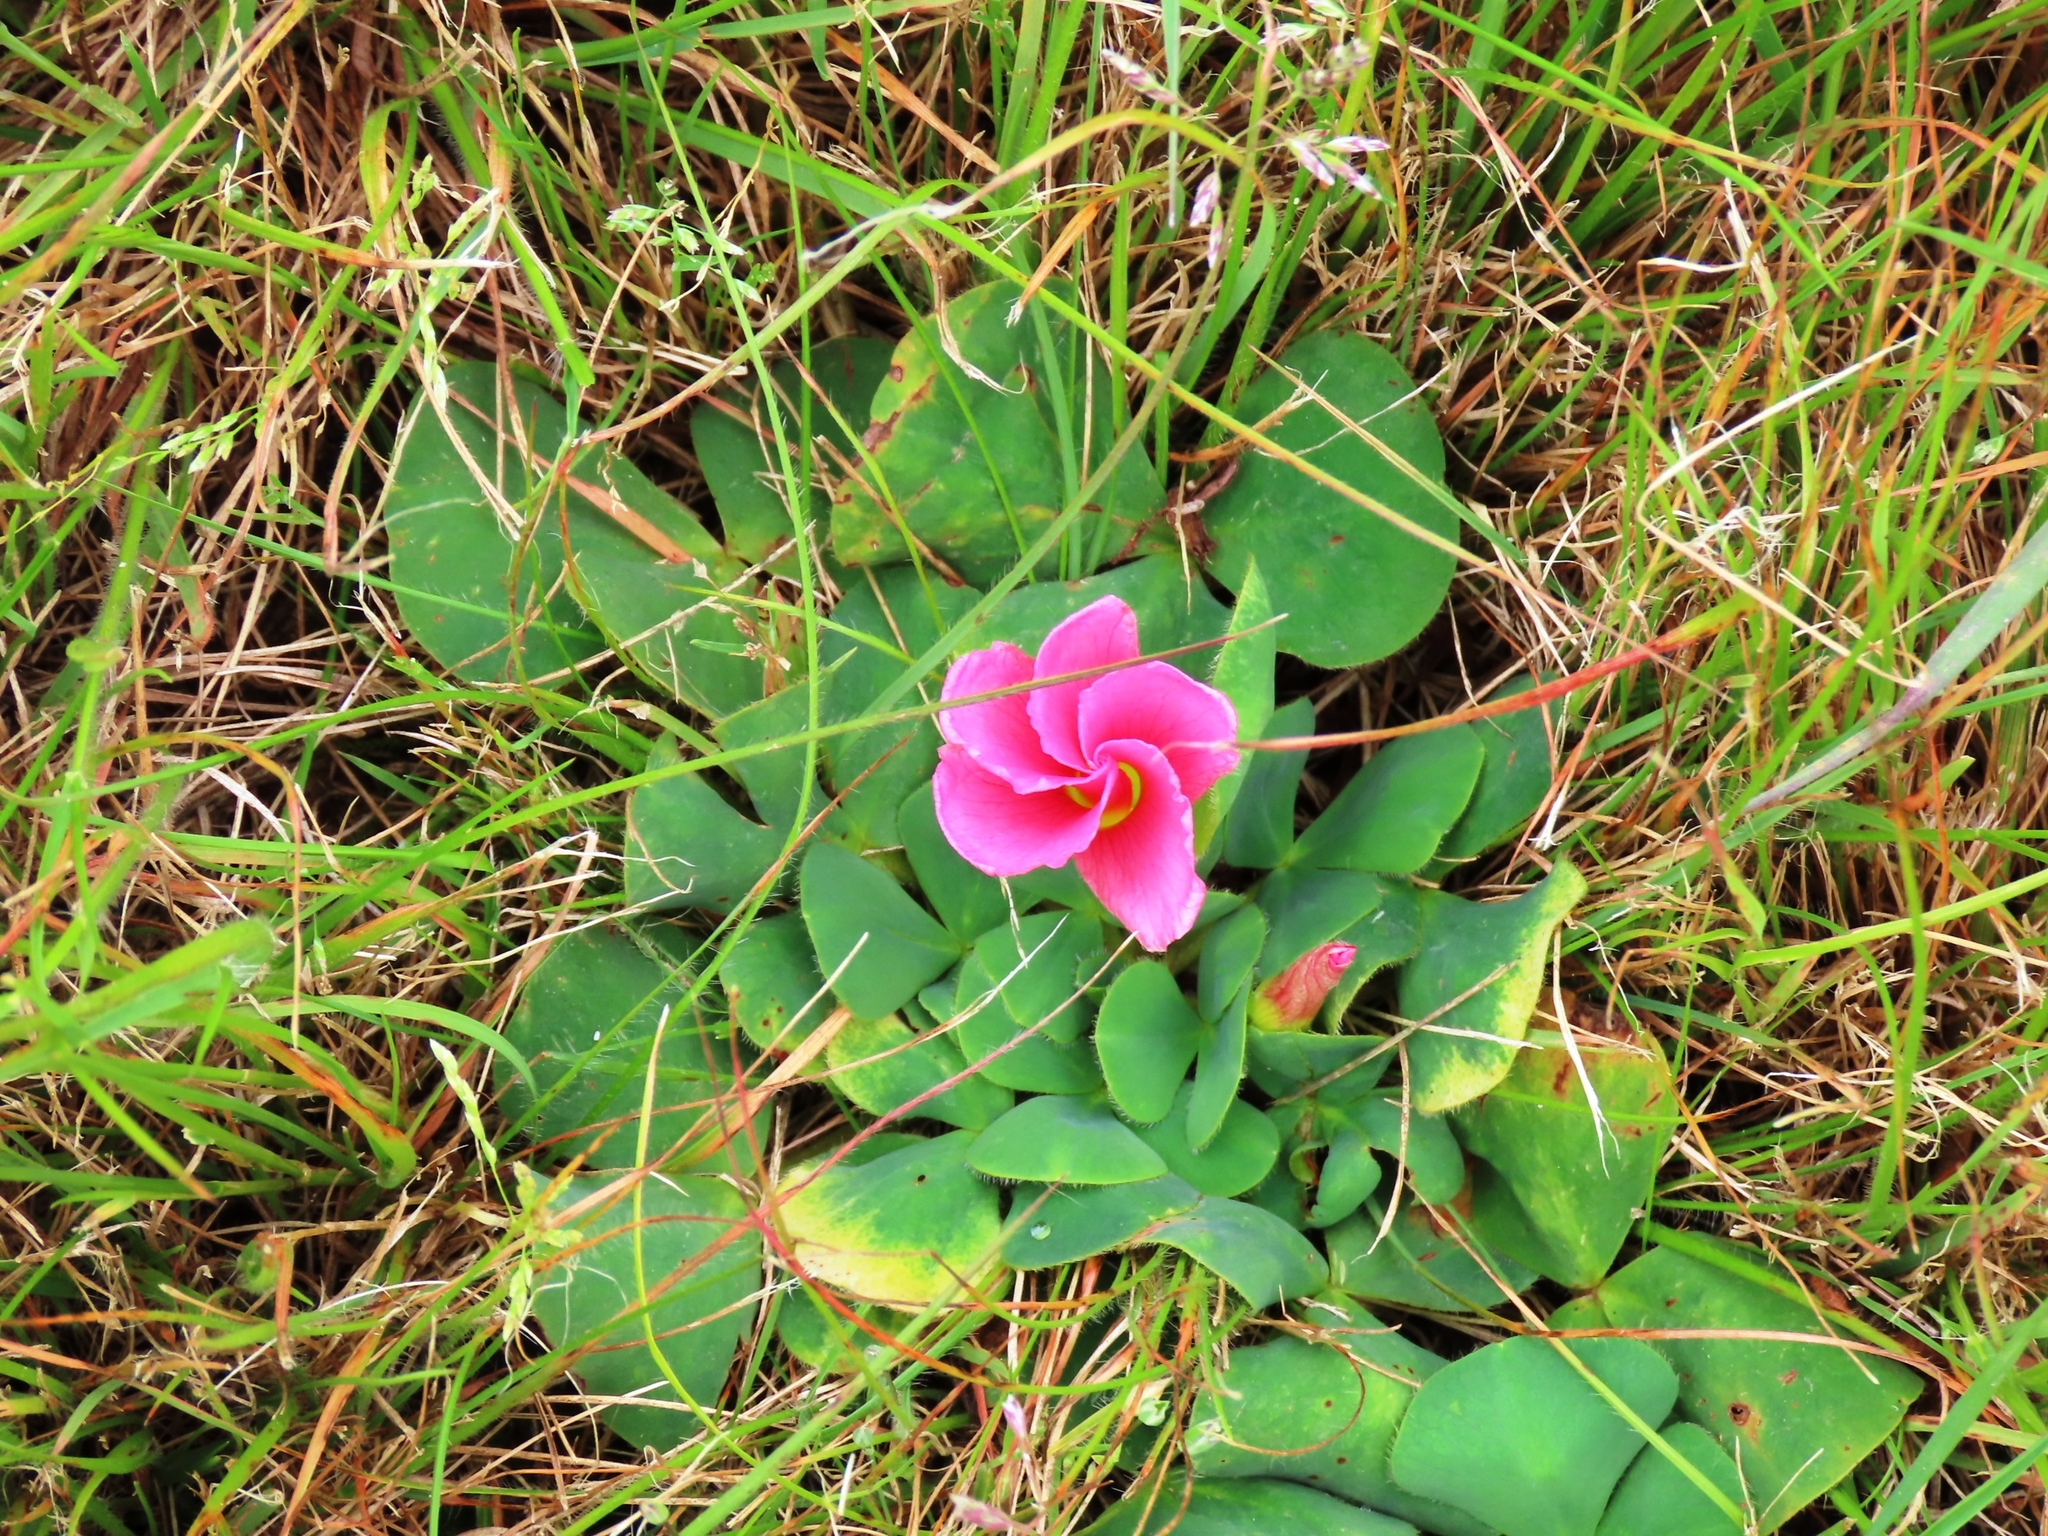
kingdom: Plantae
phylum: Tracheophyta
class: Magnoliopsida
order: Oxalidales
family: Oxalidaceae
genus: Oxalis
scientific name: Oxalis purpurea
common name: Purple woodsorrel
